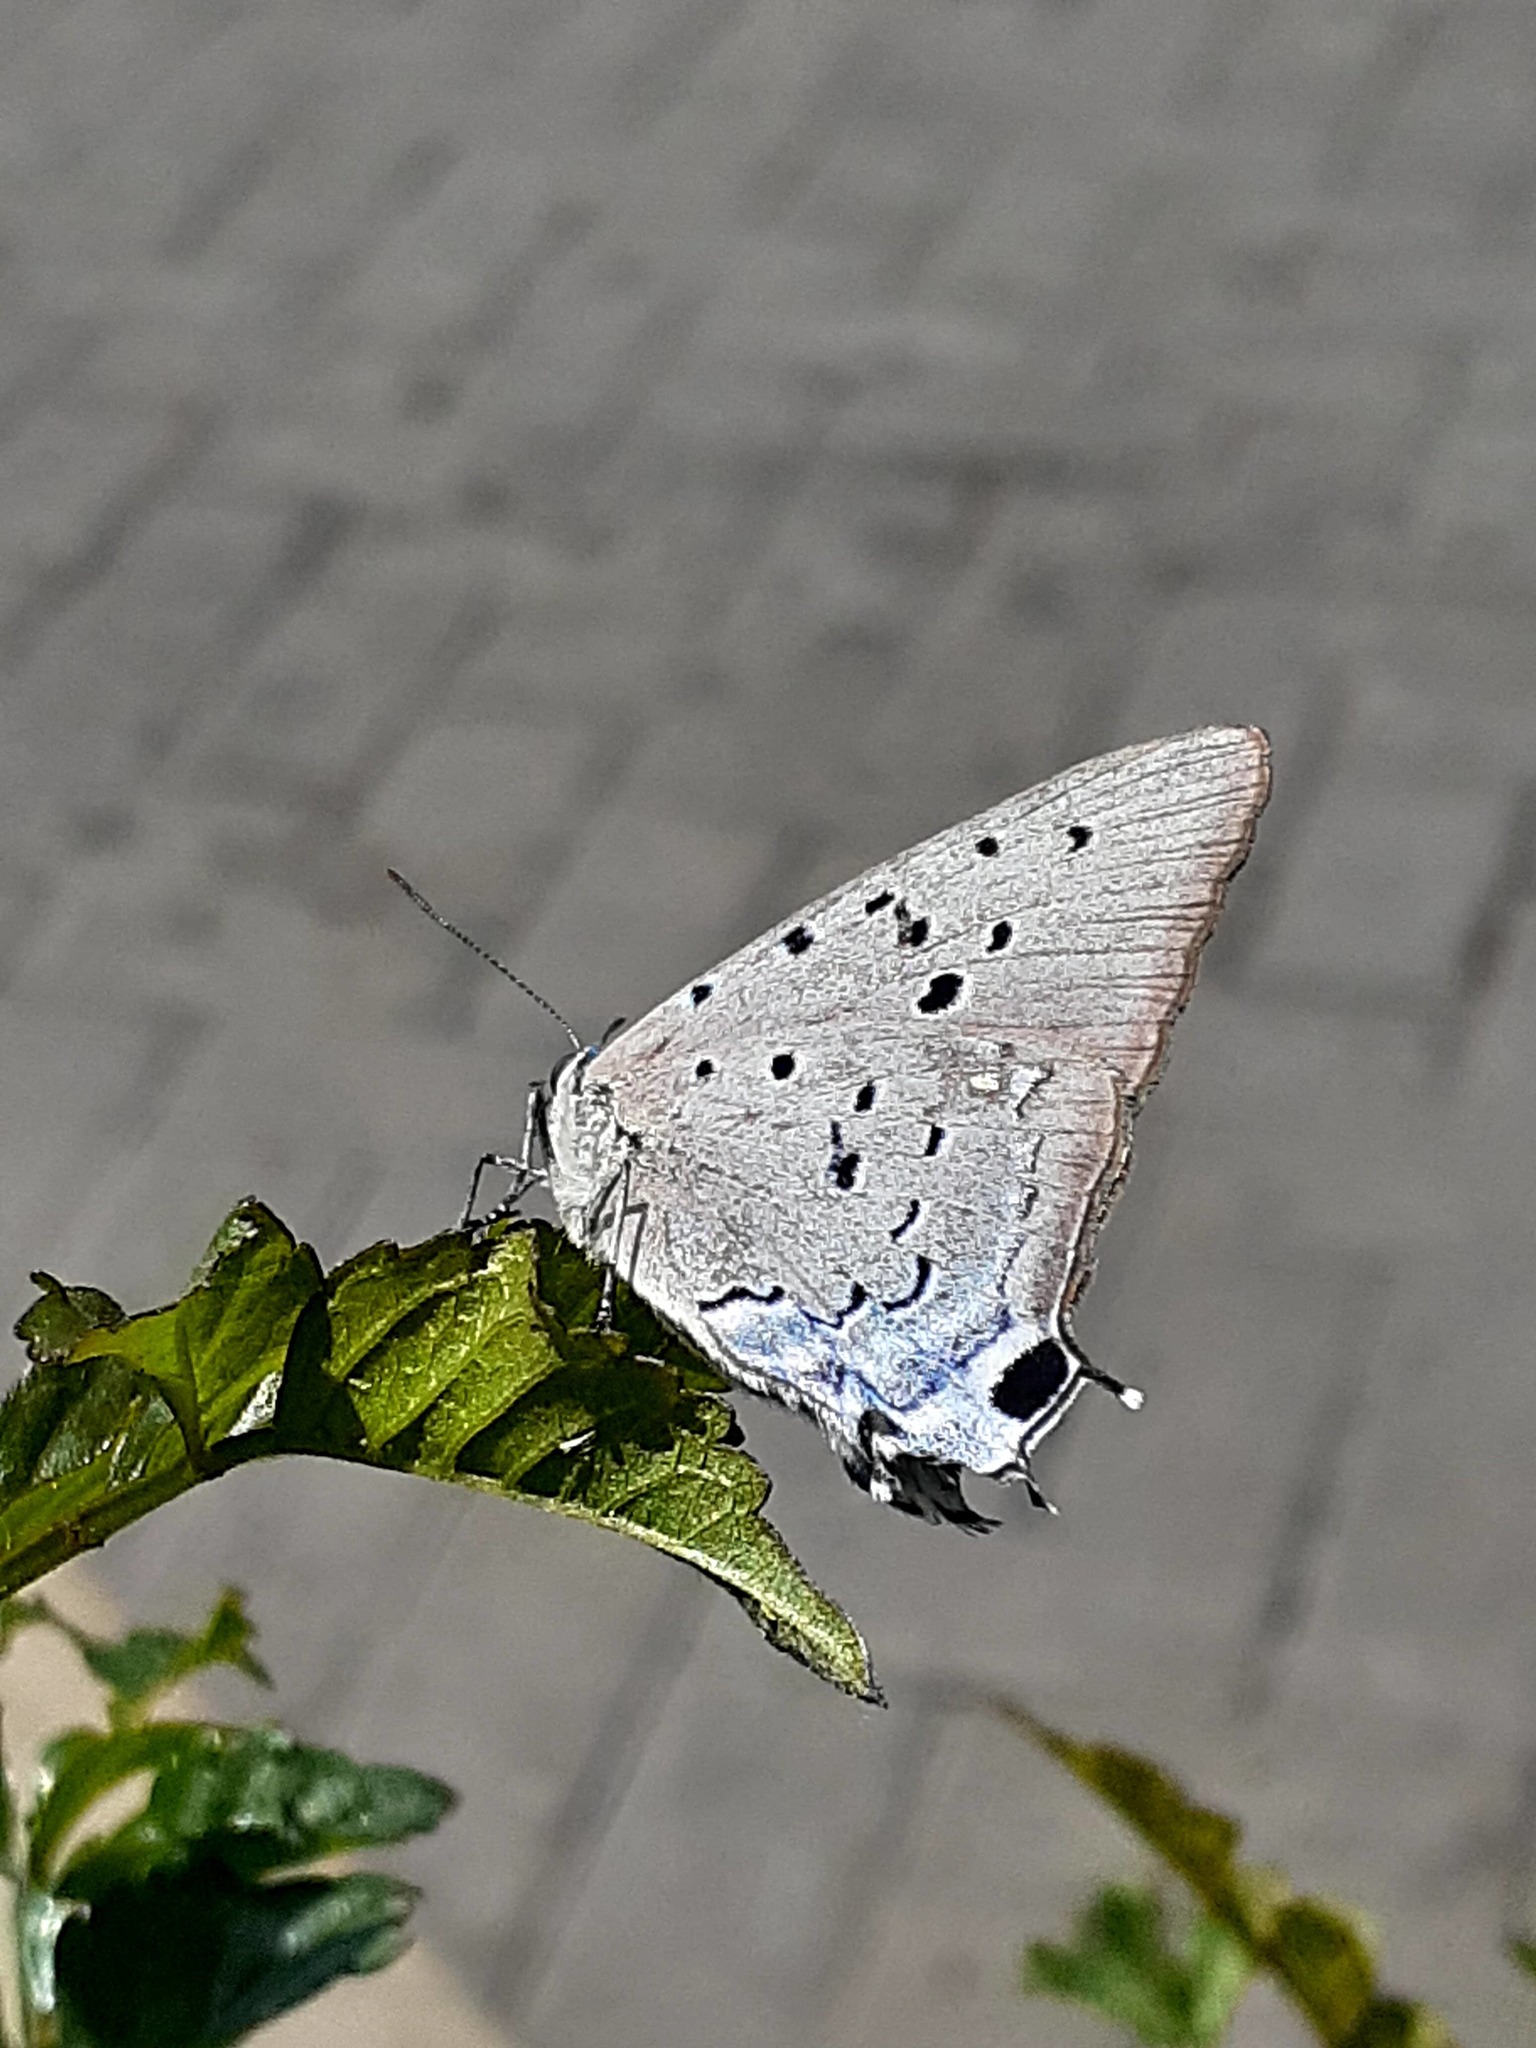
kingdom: Animalia
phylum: Arthropoda
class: Insecta
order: Lepidoptera
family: Lycaenidae
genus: Pseudolycaena
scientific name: Pseudolycaena marsyas
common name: Marsyas hairstreak
